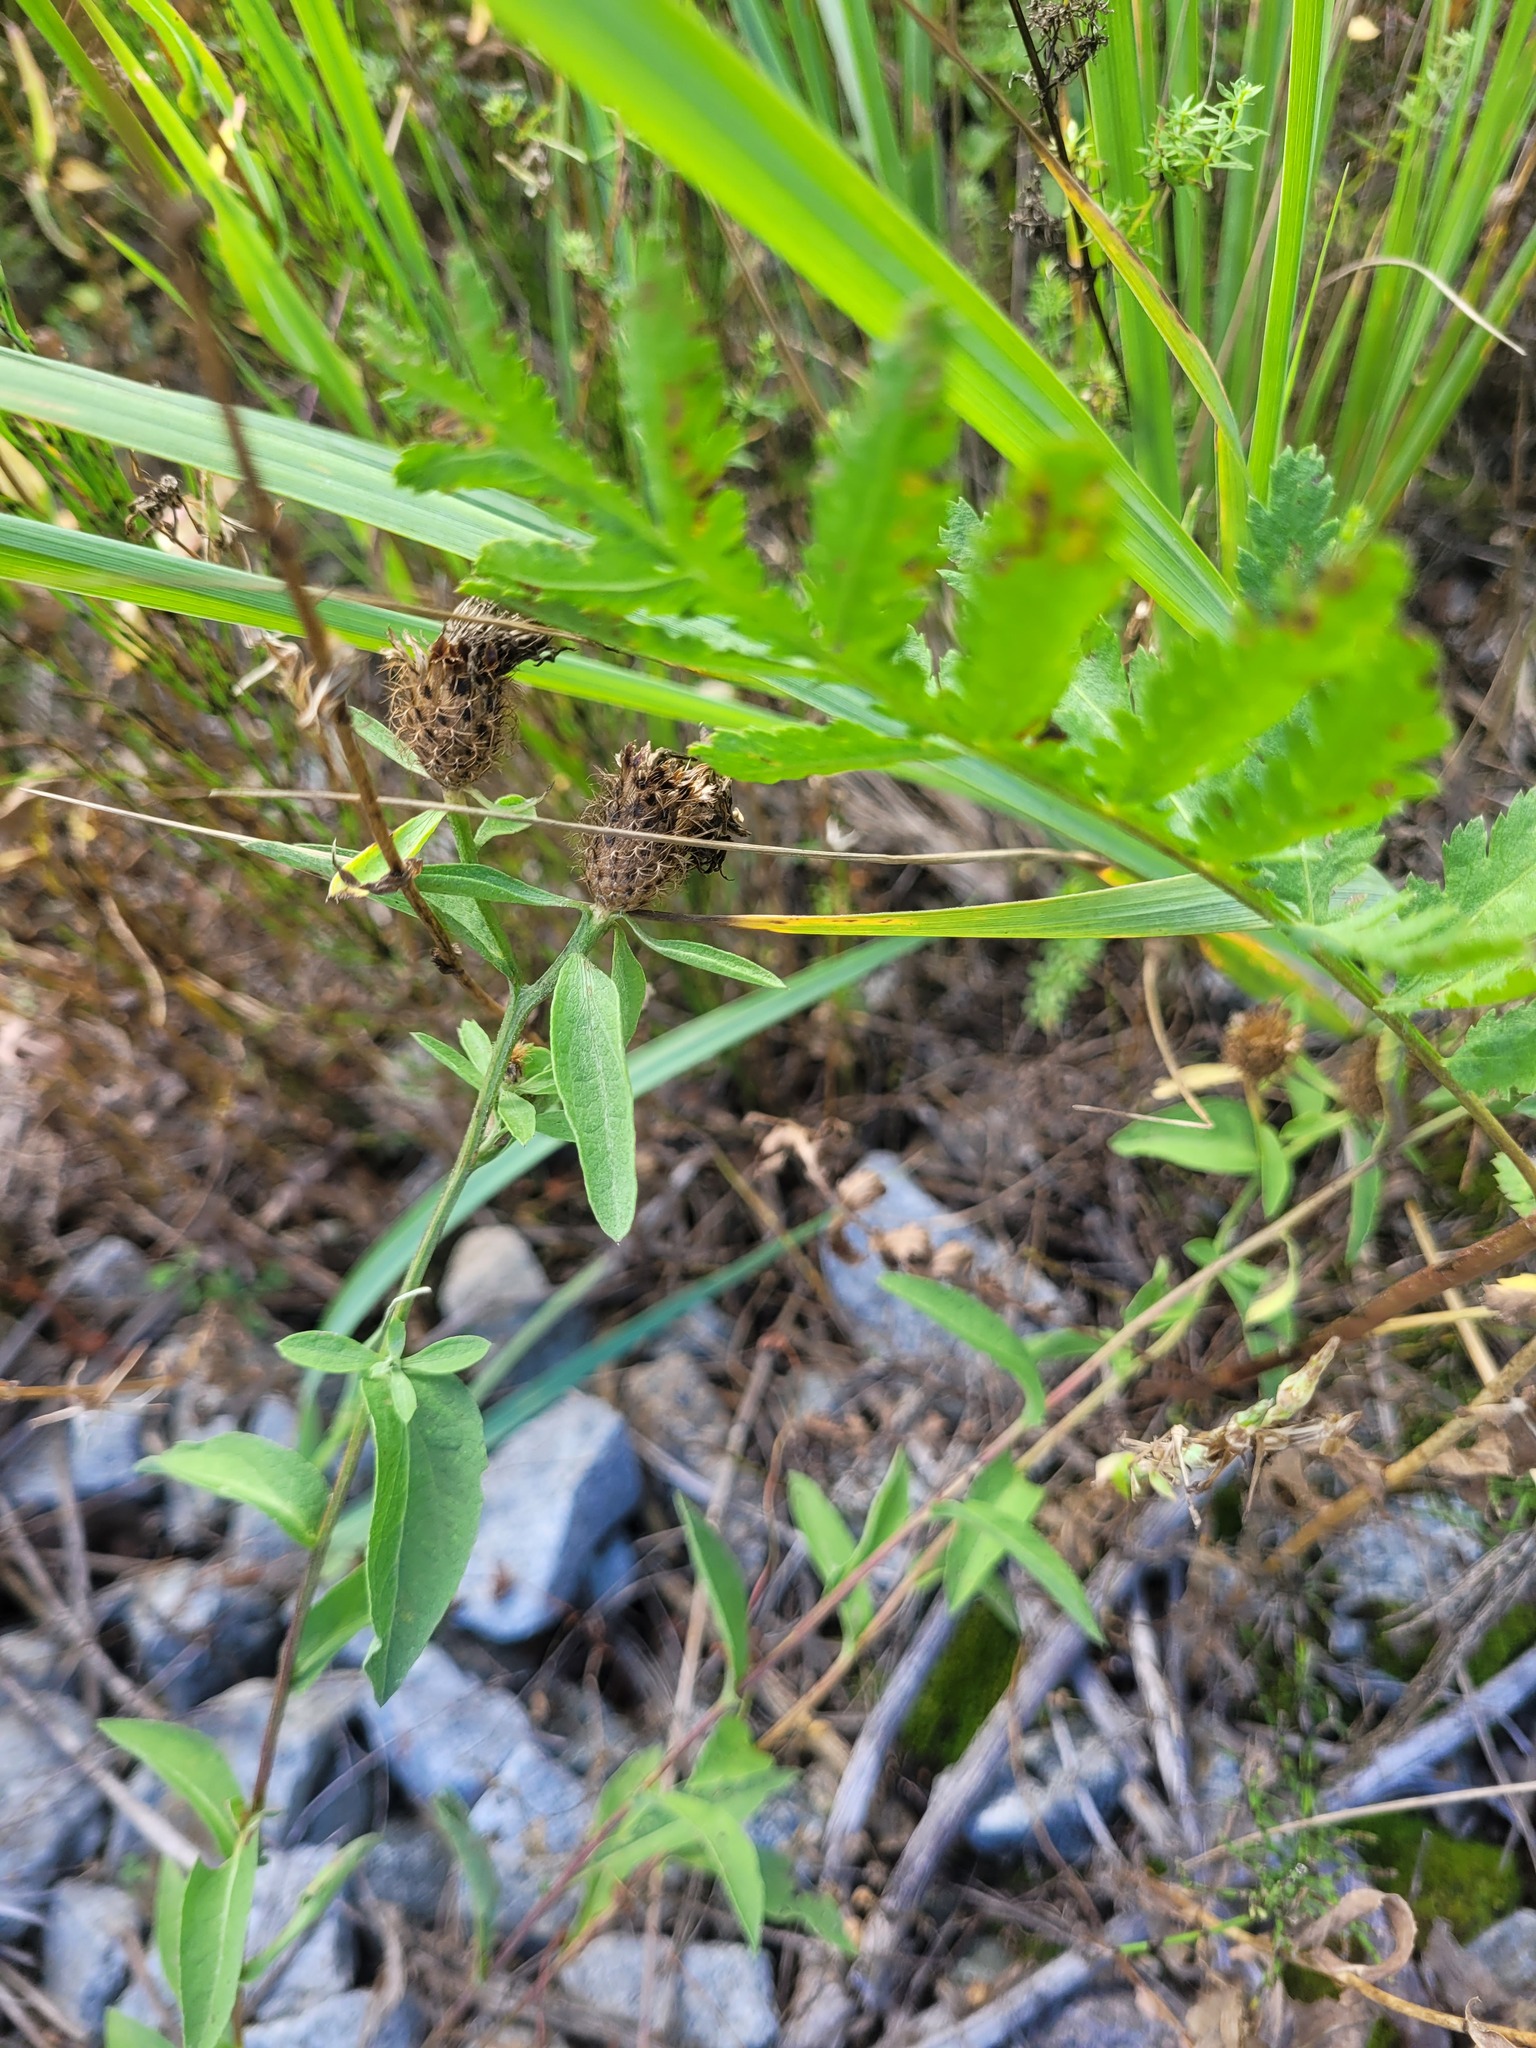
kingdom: Plantae
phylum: Tracheophyta
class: Magnoliopsida
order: Asterales
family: Asteraceae
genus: Centaurea
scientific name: Centaurea pseudophrygia
